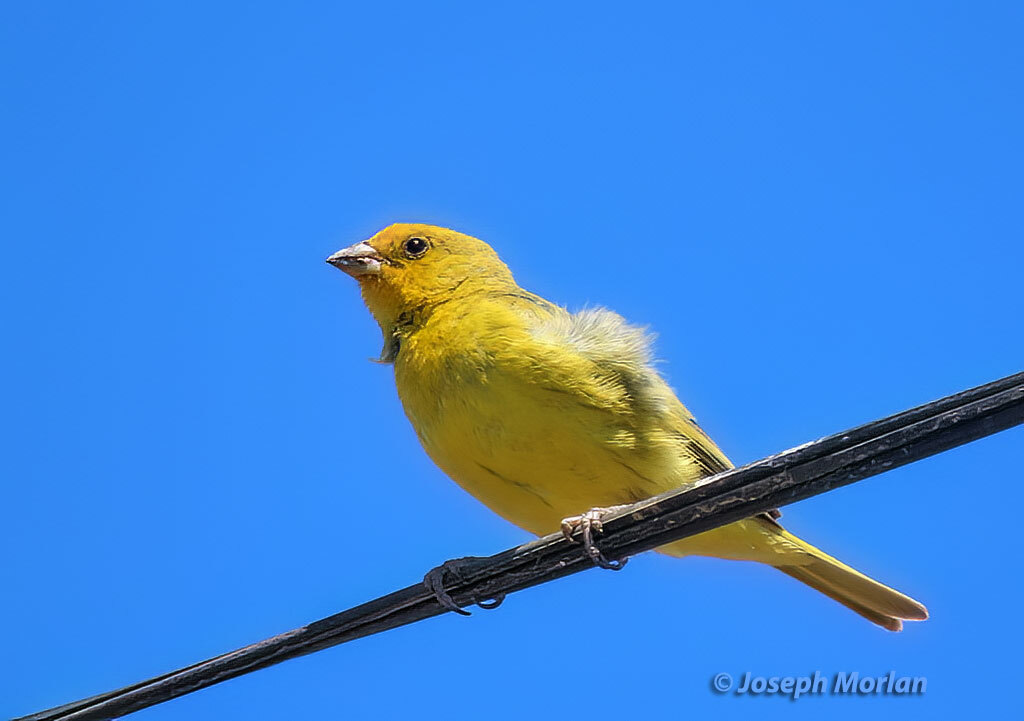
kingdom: Animalia
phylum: Chordata
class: Aves
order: Passeriformes
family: Thraupidae
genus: Sicalis
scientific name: Sicalis flaveola
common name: Saffron finch
